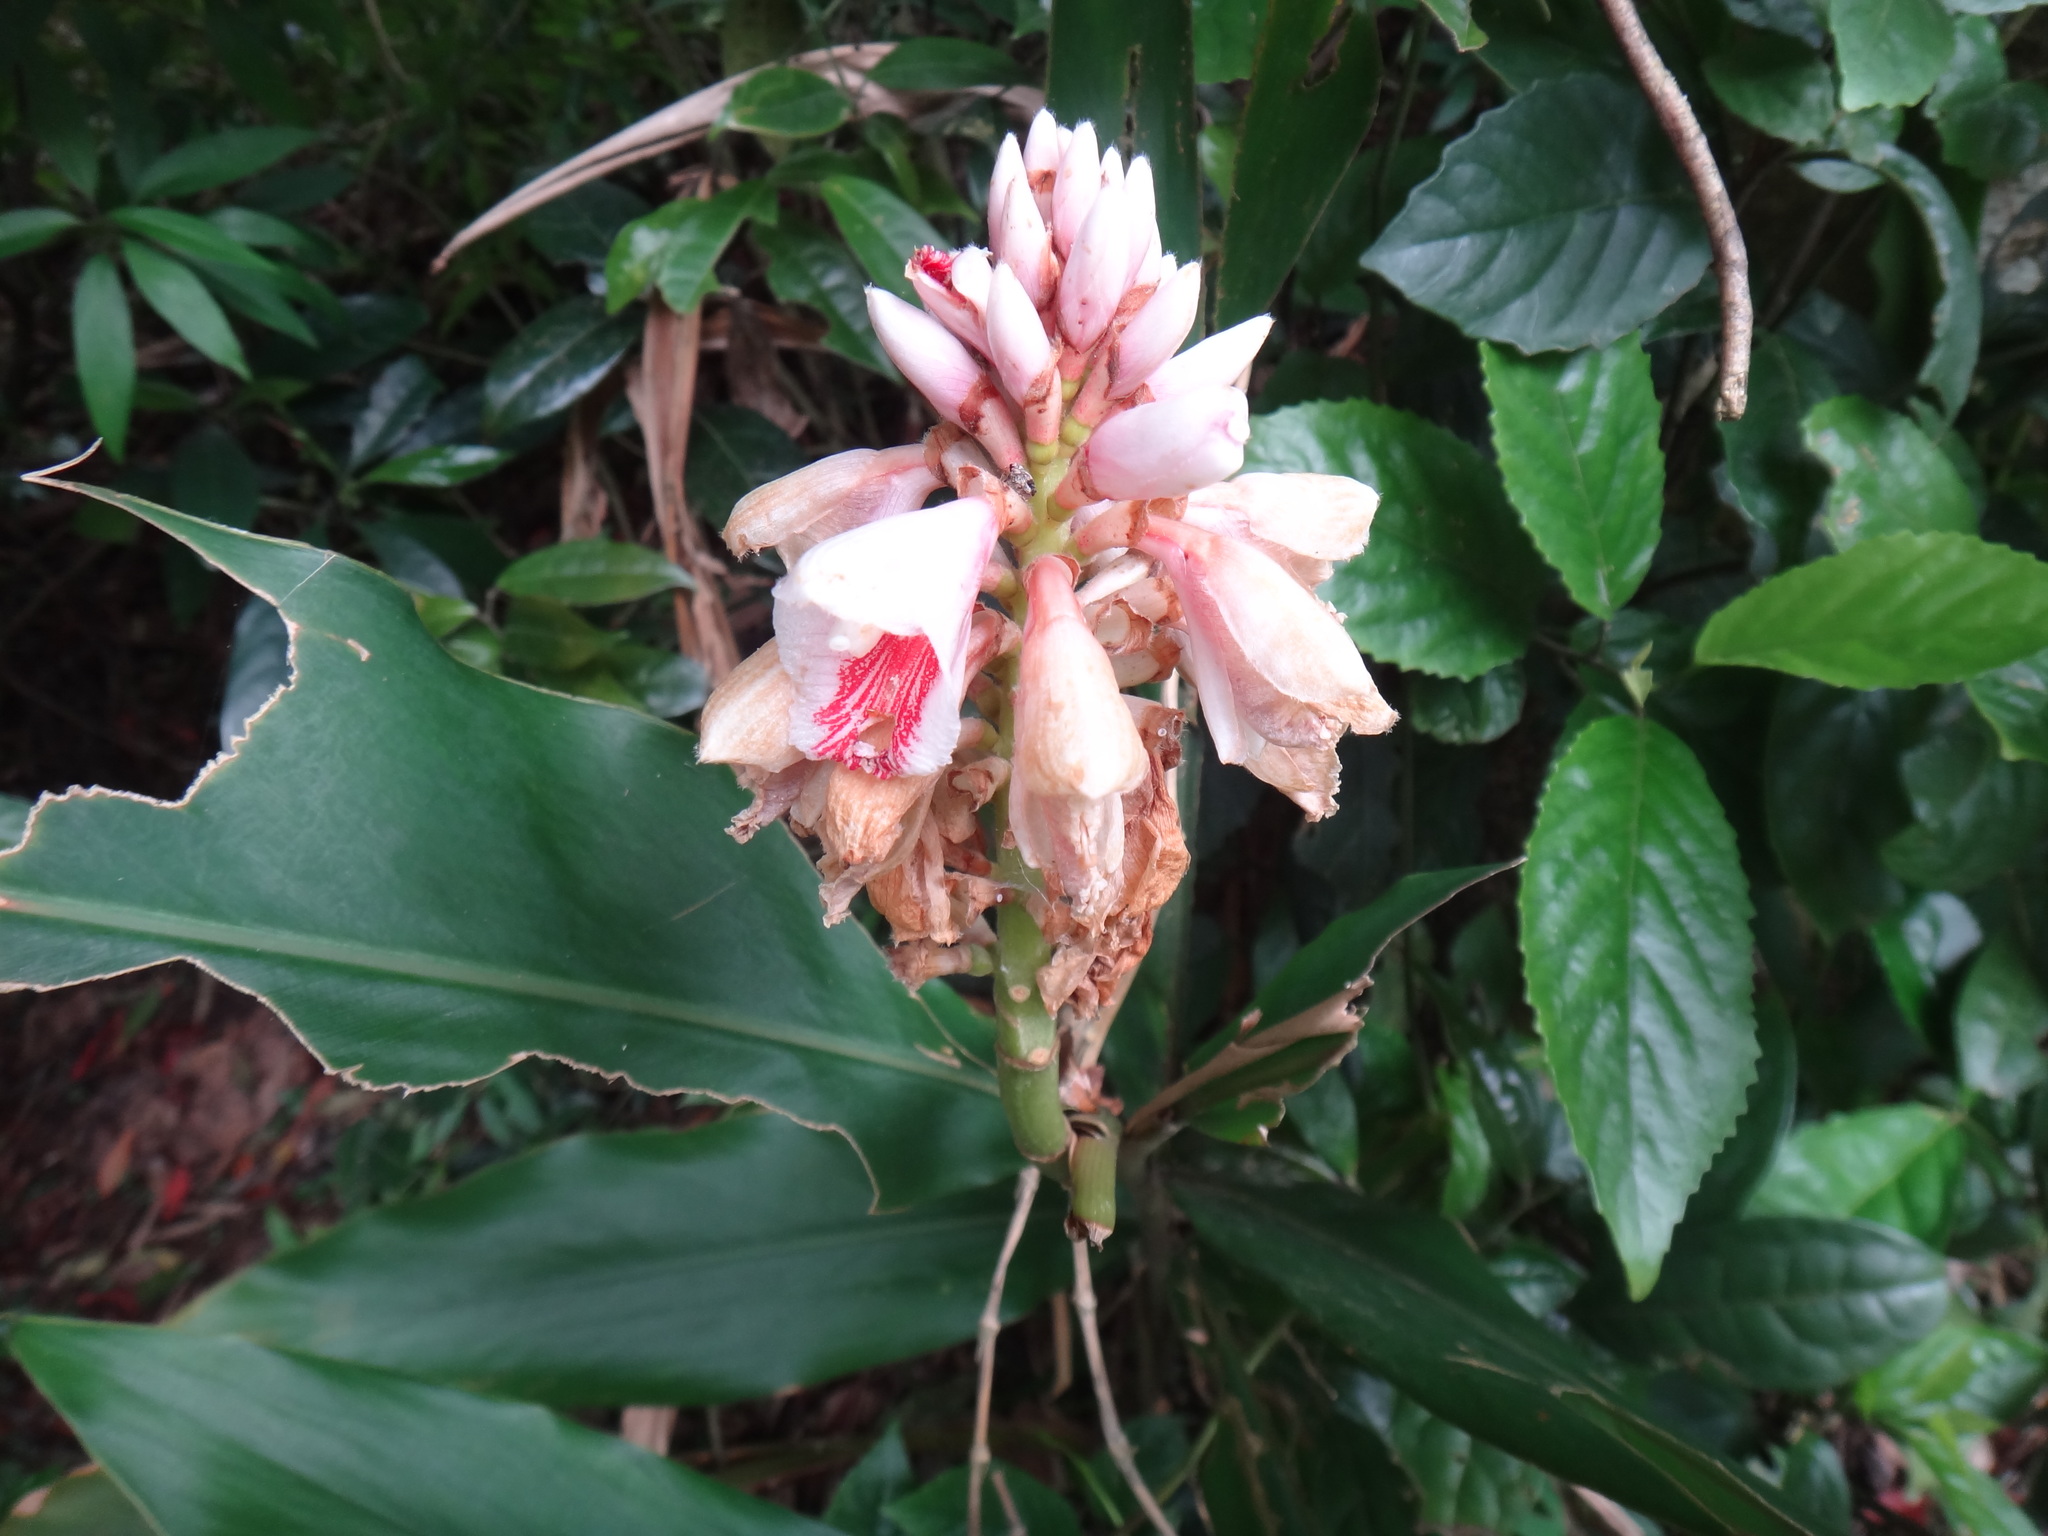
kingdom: Plantae
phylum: Tracheophyta
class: Liliopsida
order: Zingiberales
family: Zingiberaceae
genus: Alpinia
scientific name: Alpinia pricei
